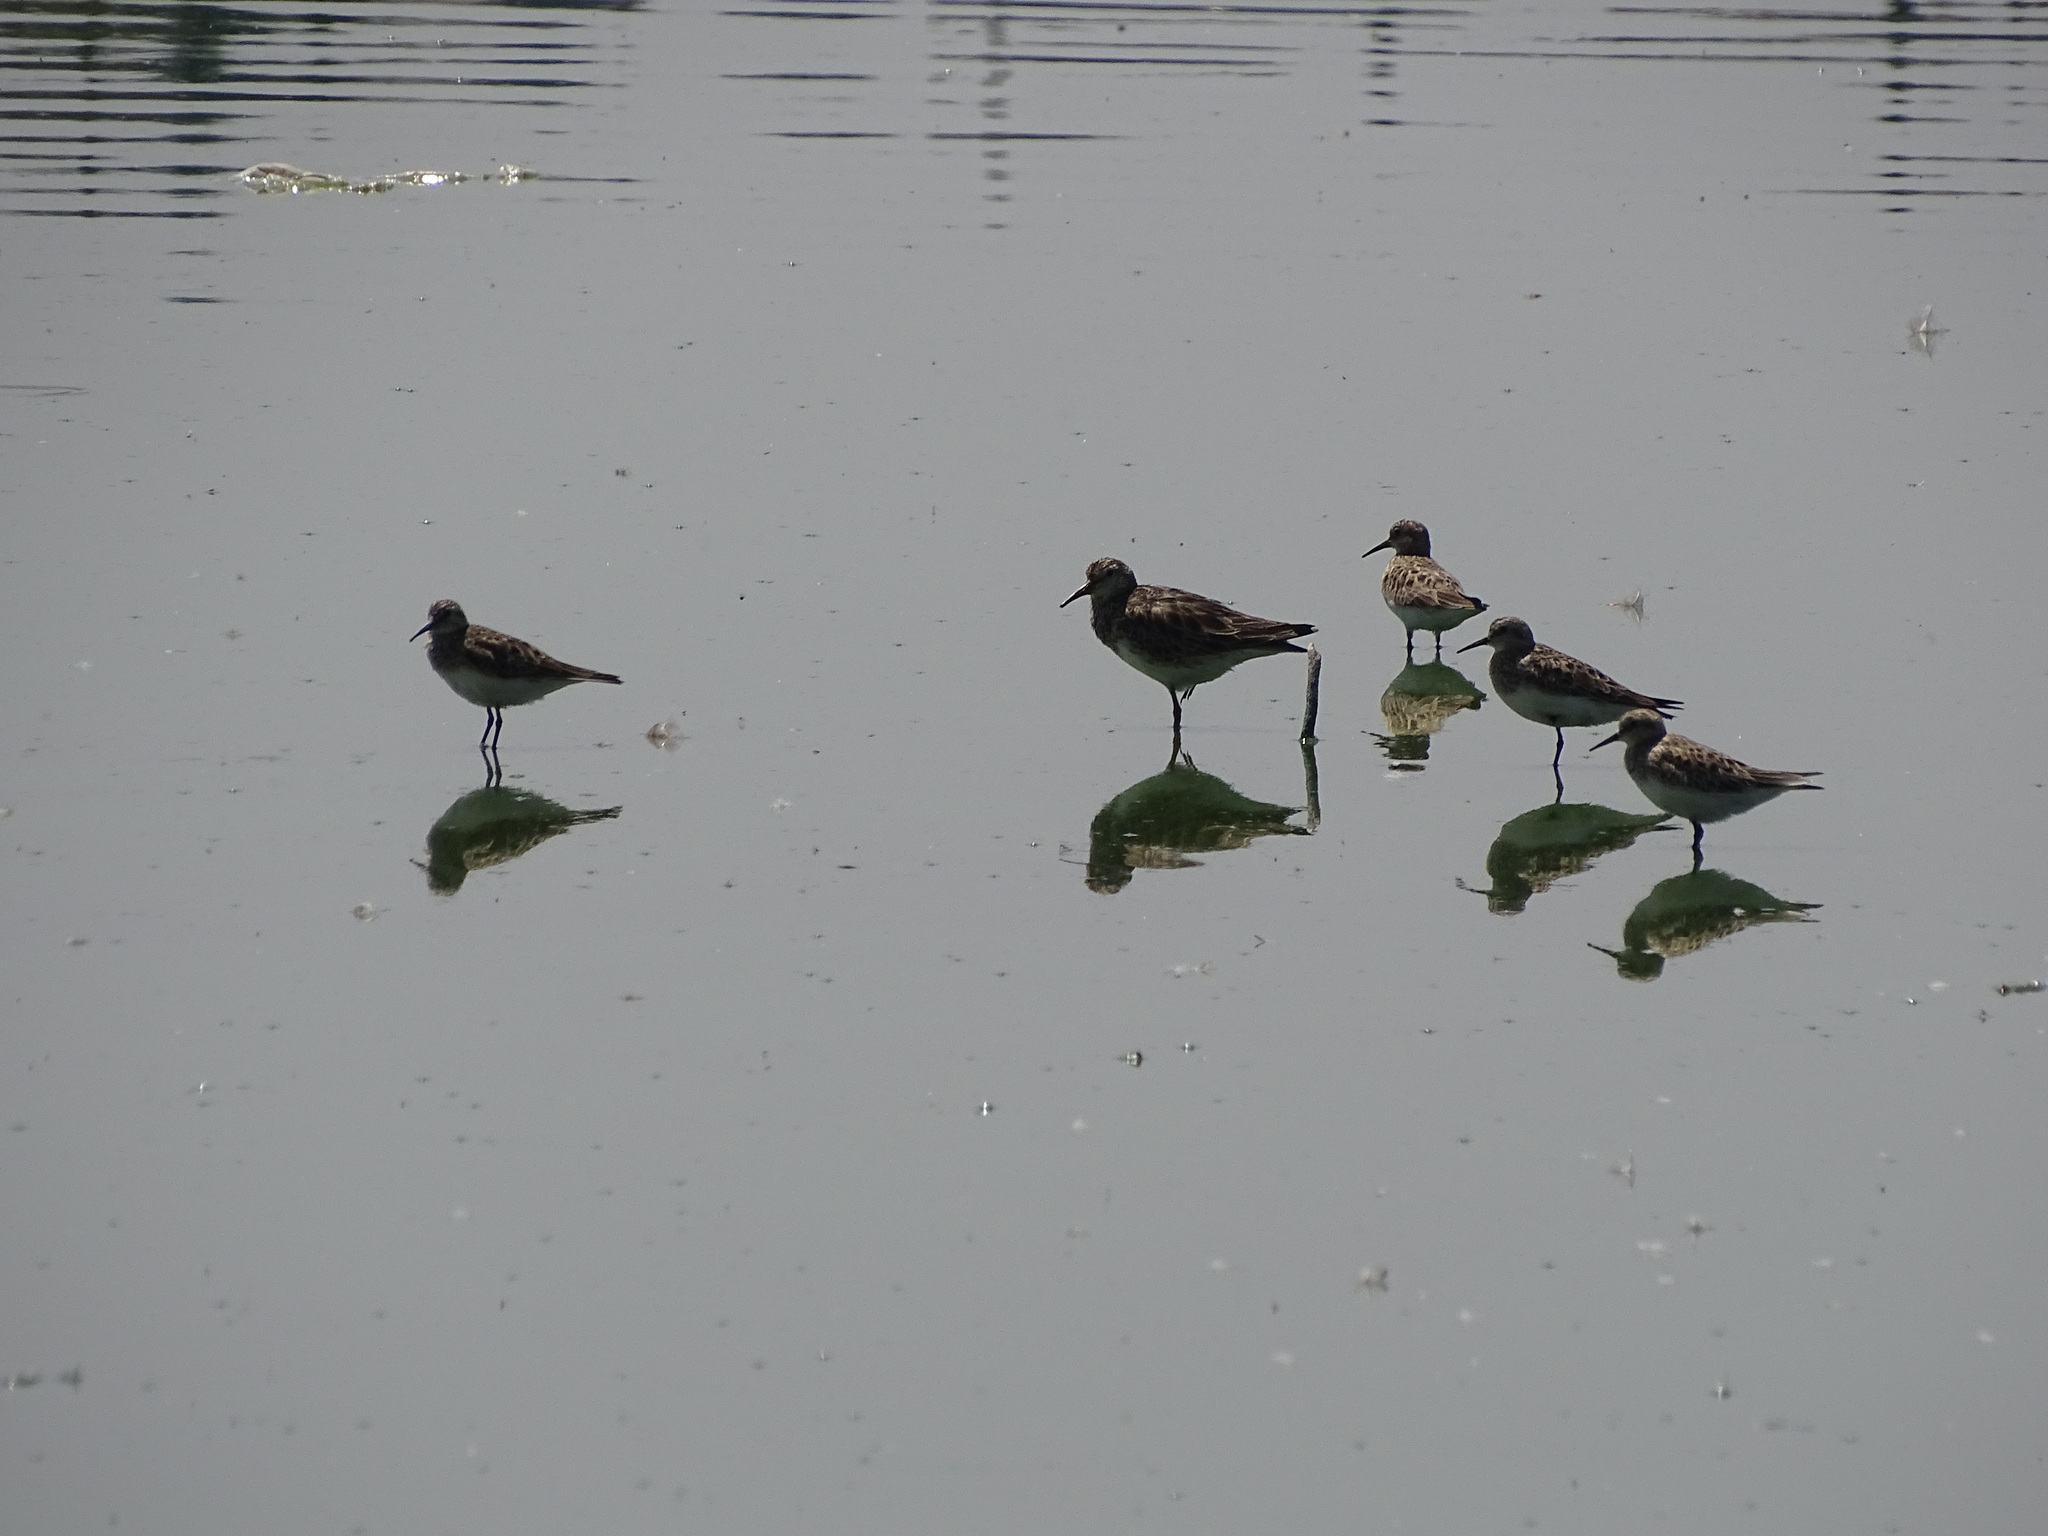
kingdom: Animalia
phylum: Chordata
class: Aves
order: Charadriiformes
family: Scolopacidae
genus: Calidris
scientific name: Calidris bairdii
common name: Baird's sandpiper
